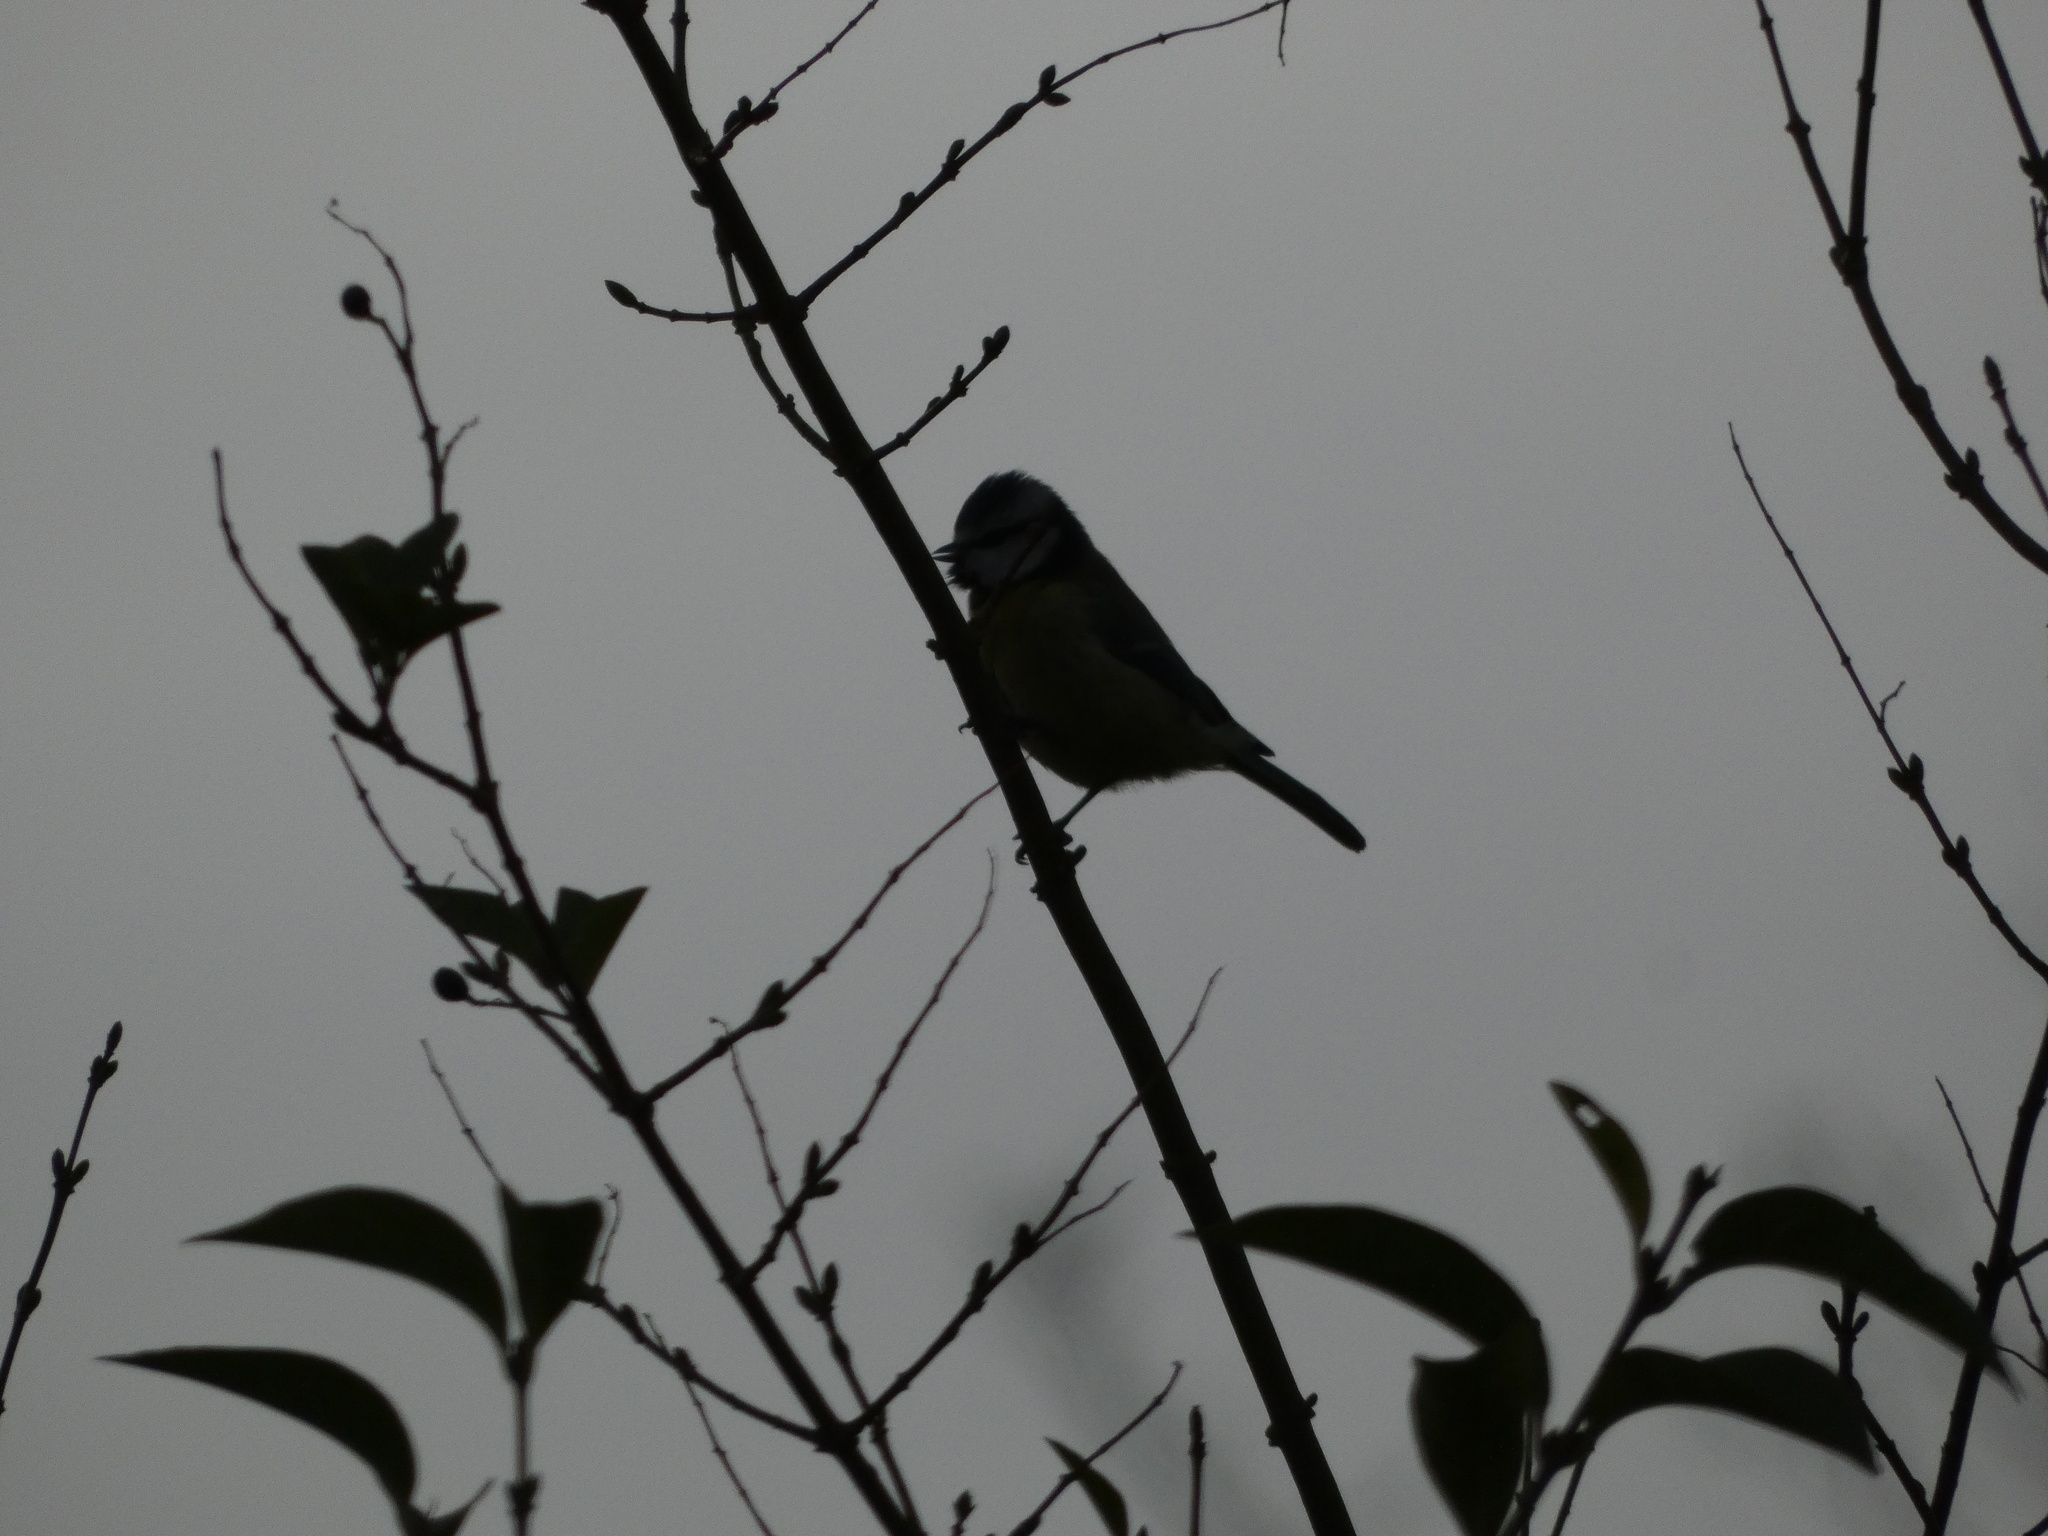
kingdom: Animalia
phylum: Chordata
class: Aves
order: Passeriformes
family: Paridae
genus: Cyanistes
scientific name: Cyanistes caeruleus
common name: Eurasian blue tit
